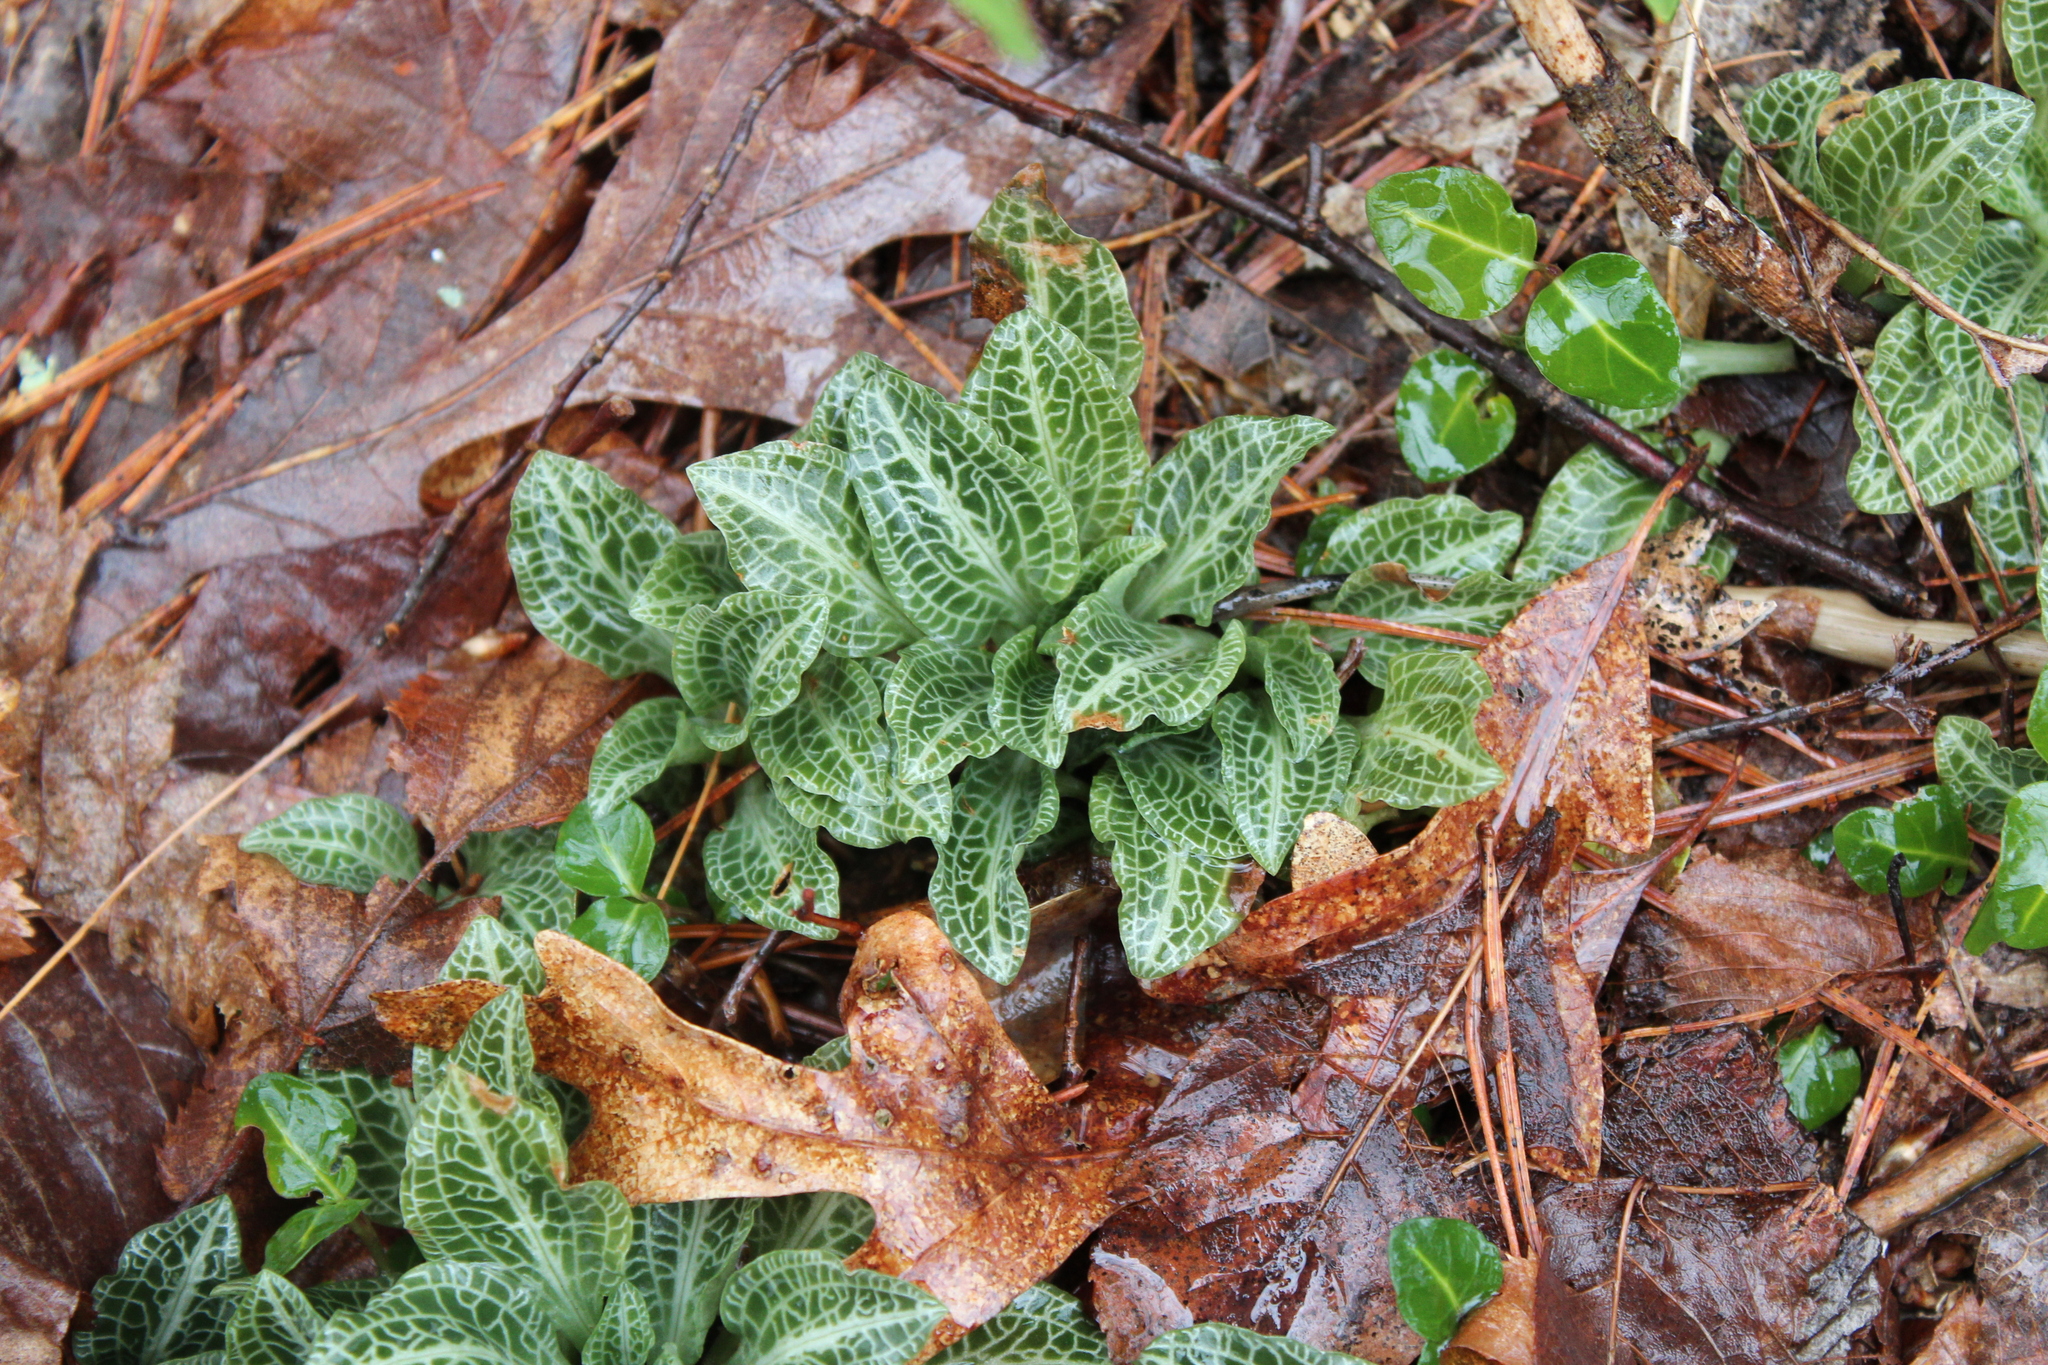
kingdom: Plantae
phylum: Tracheophyta
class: Liliopsida
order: Asparagales
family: Orchidaceae
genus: Goodyera
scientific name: Goodyera pubescens
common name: Downy rattlesnake-plantain
